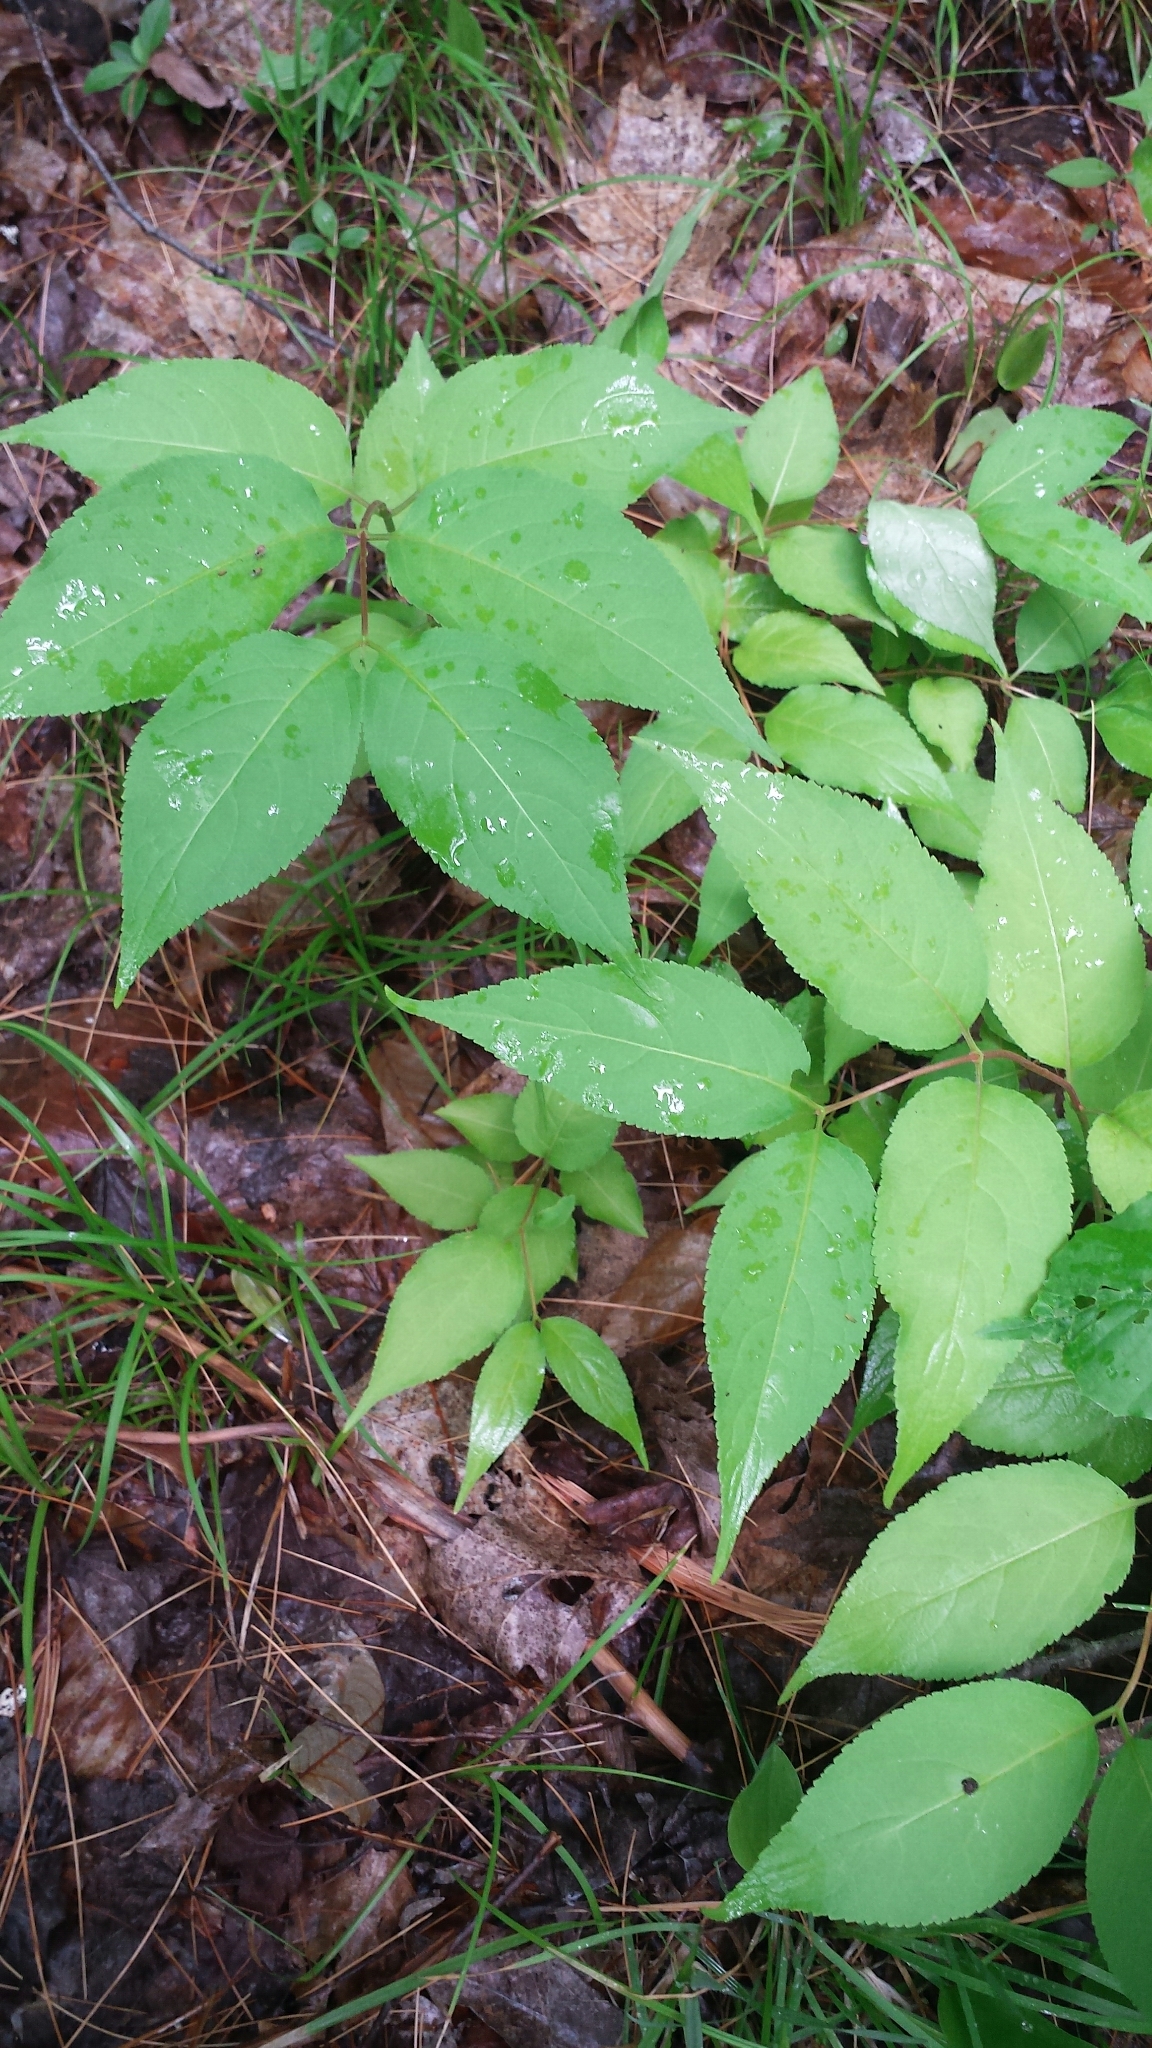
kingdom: Plantae
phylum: Tracheophyta
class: Magnoliopsida
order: Dipsacales
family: Caprifoliaceae
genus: Diervilla
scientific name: Diervilla lonicera
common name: Bush-honeysuckle
